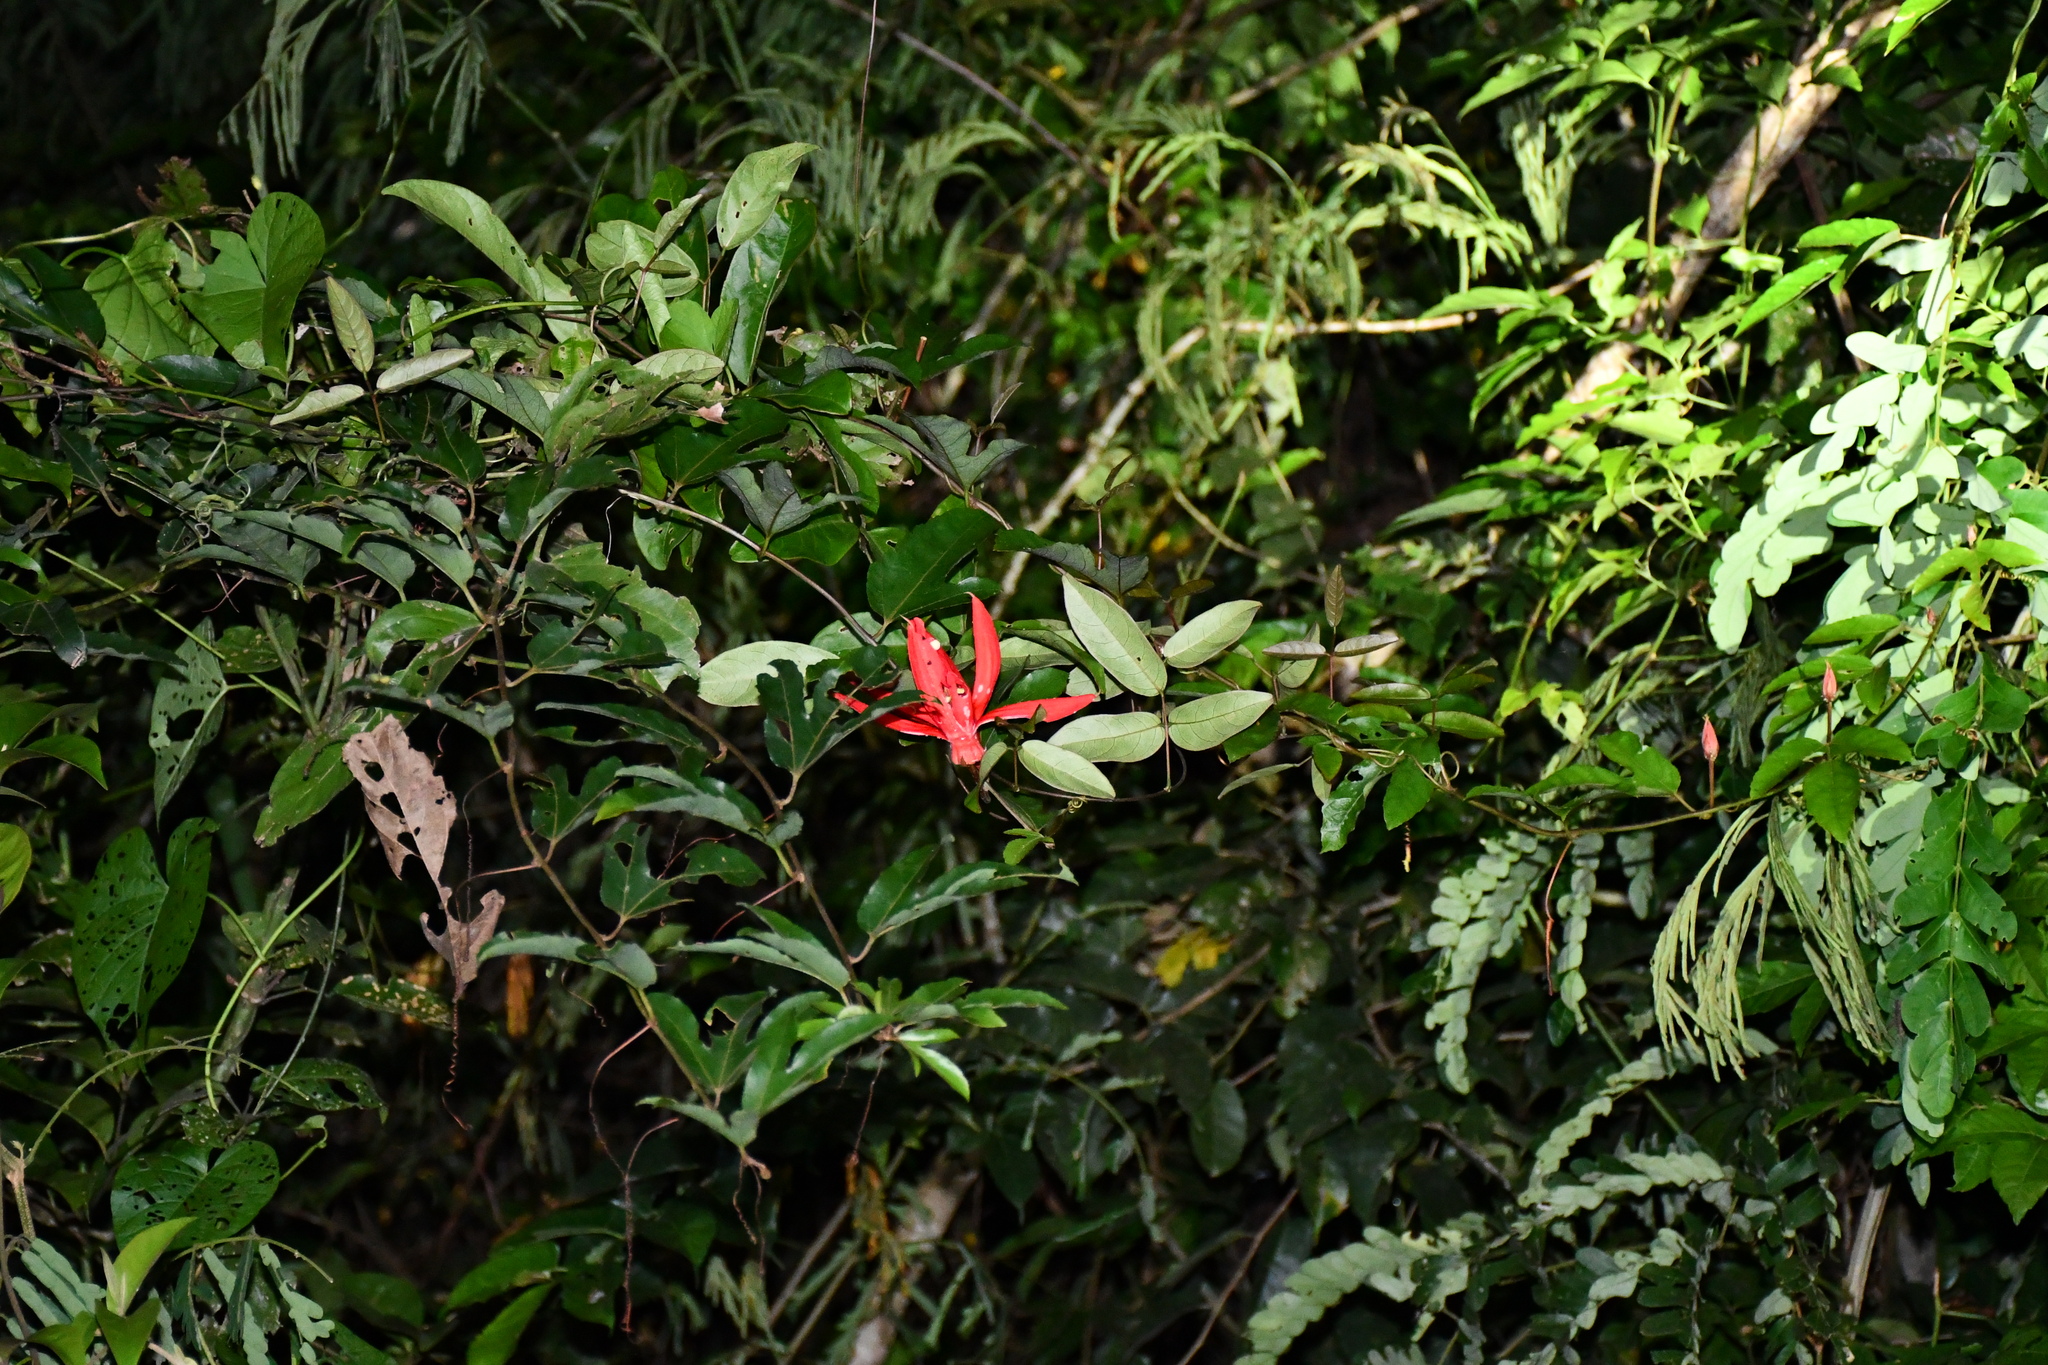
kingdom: Plantae
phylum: Tracheophyta
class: Magnoliopsida
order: Malpighiales
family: Passifloraceae
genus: Passiflora
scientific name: Passiflora quadriglandulosa
